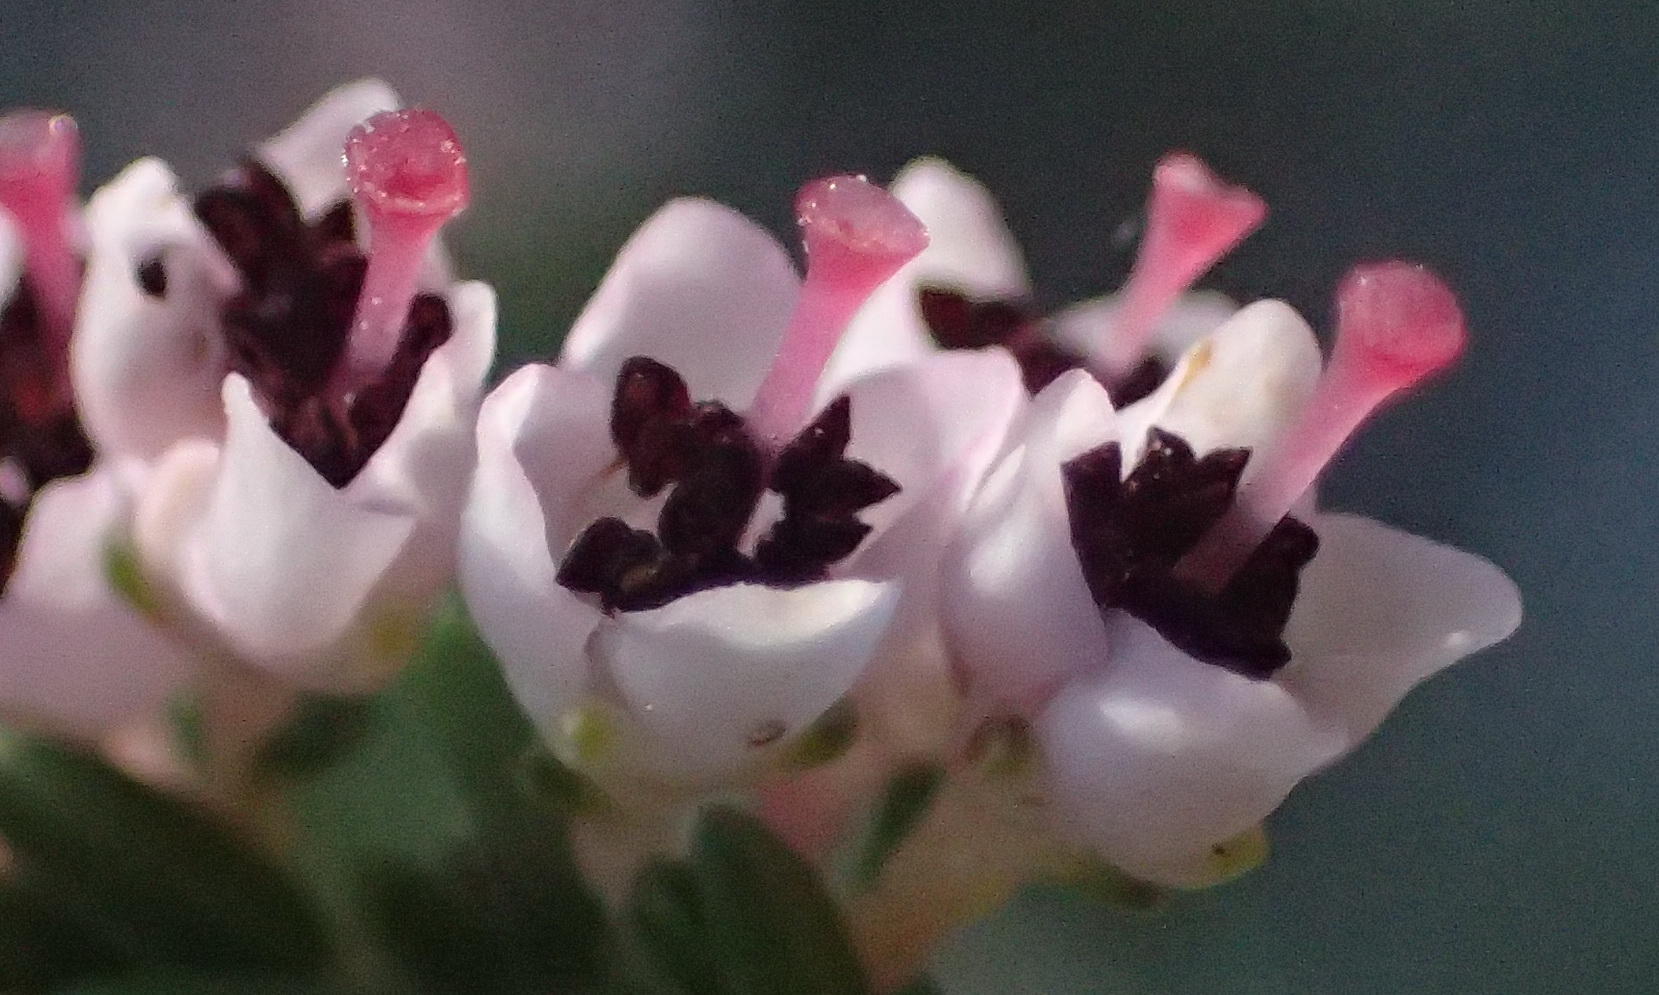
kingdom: Plantae
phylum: Tracheophyta
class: Magnoliopsida
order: Ericales
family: Ericaceae
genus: Erica
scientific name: Erica sparsa
